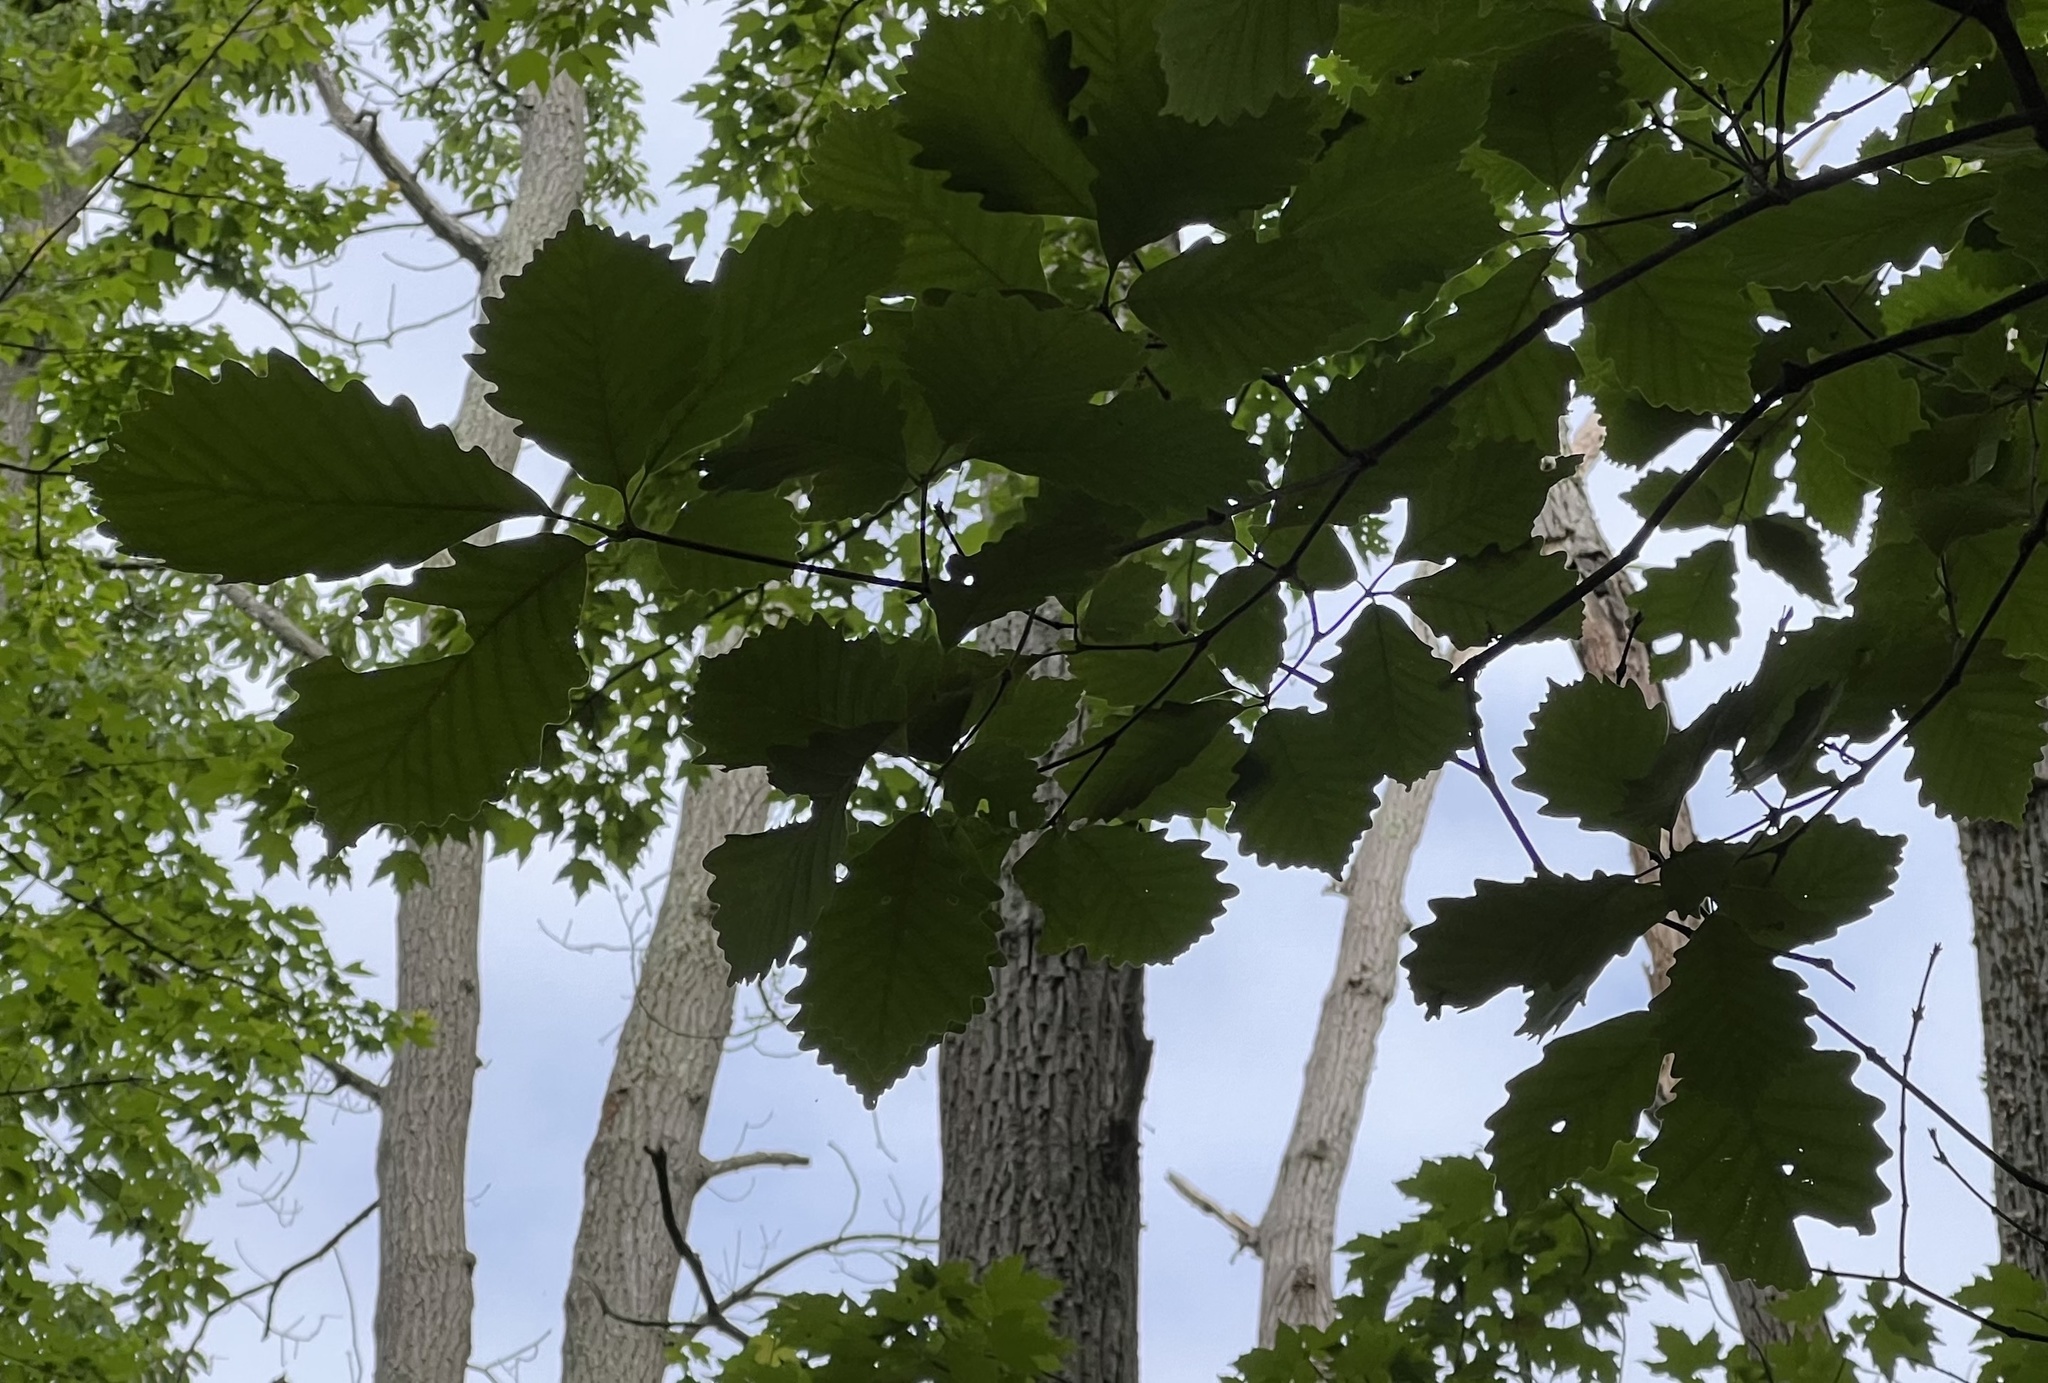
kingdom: Plantae
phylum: Tracheophyta
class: Magnoliopsida
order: Fagales
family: Fagaceae
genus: Quercus
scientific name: Quercus montana
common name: Chestnut oak
